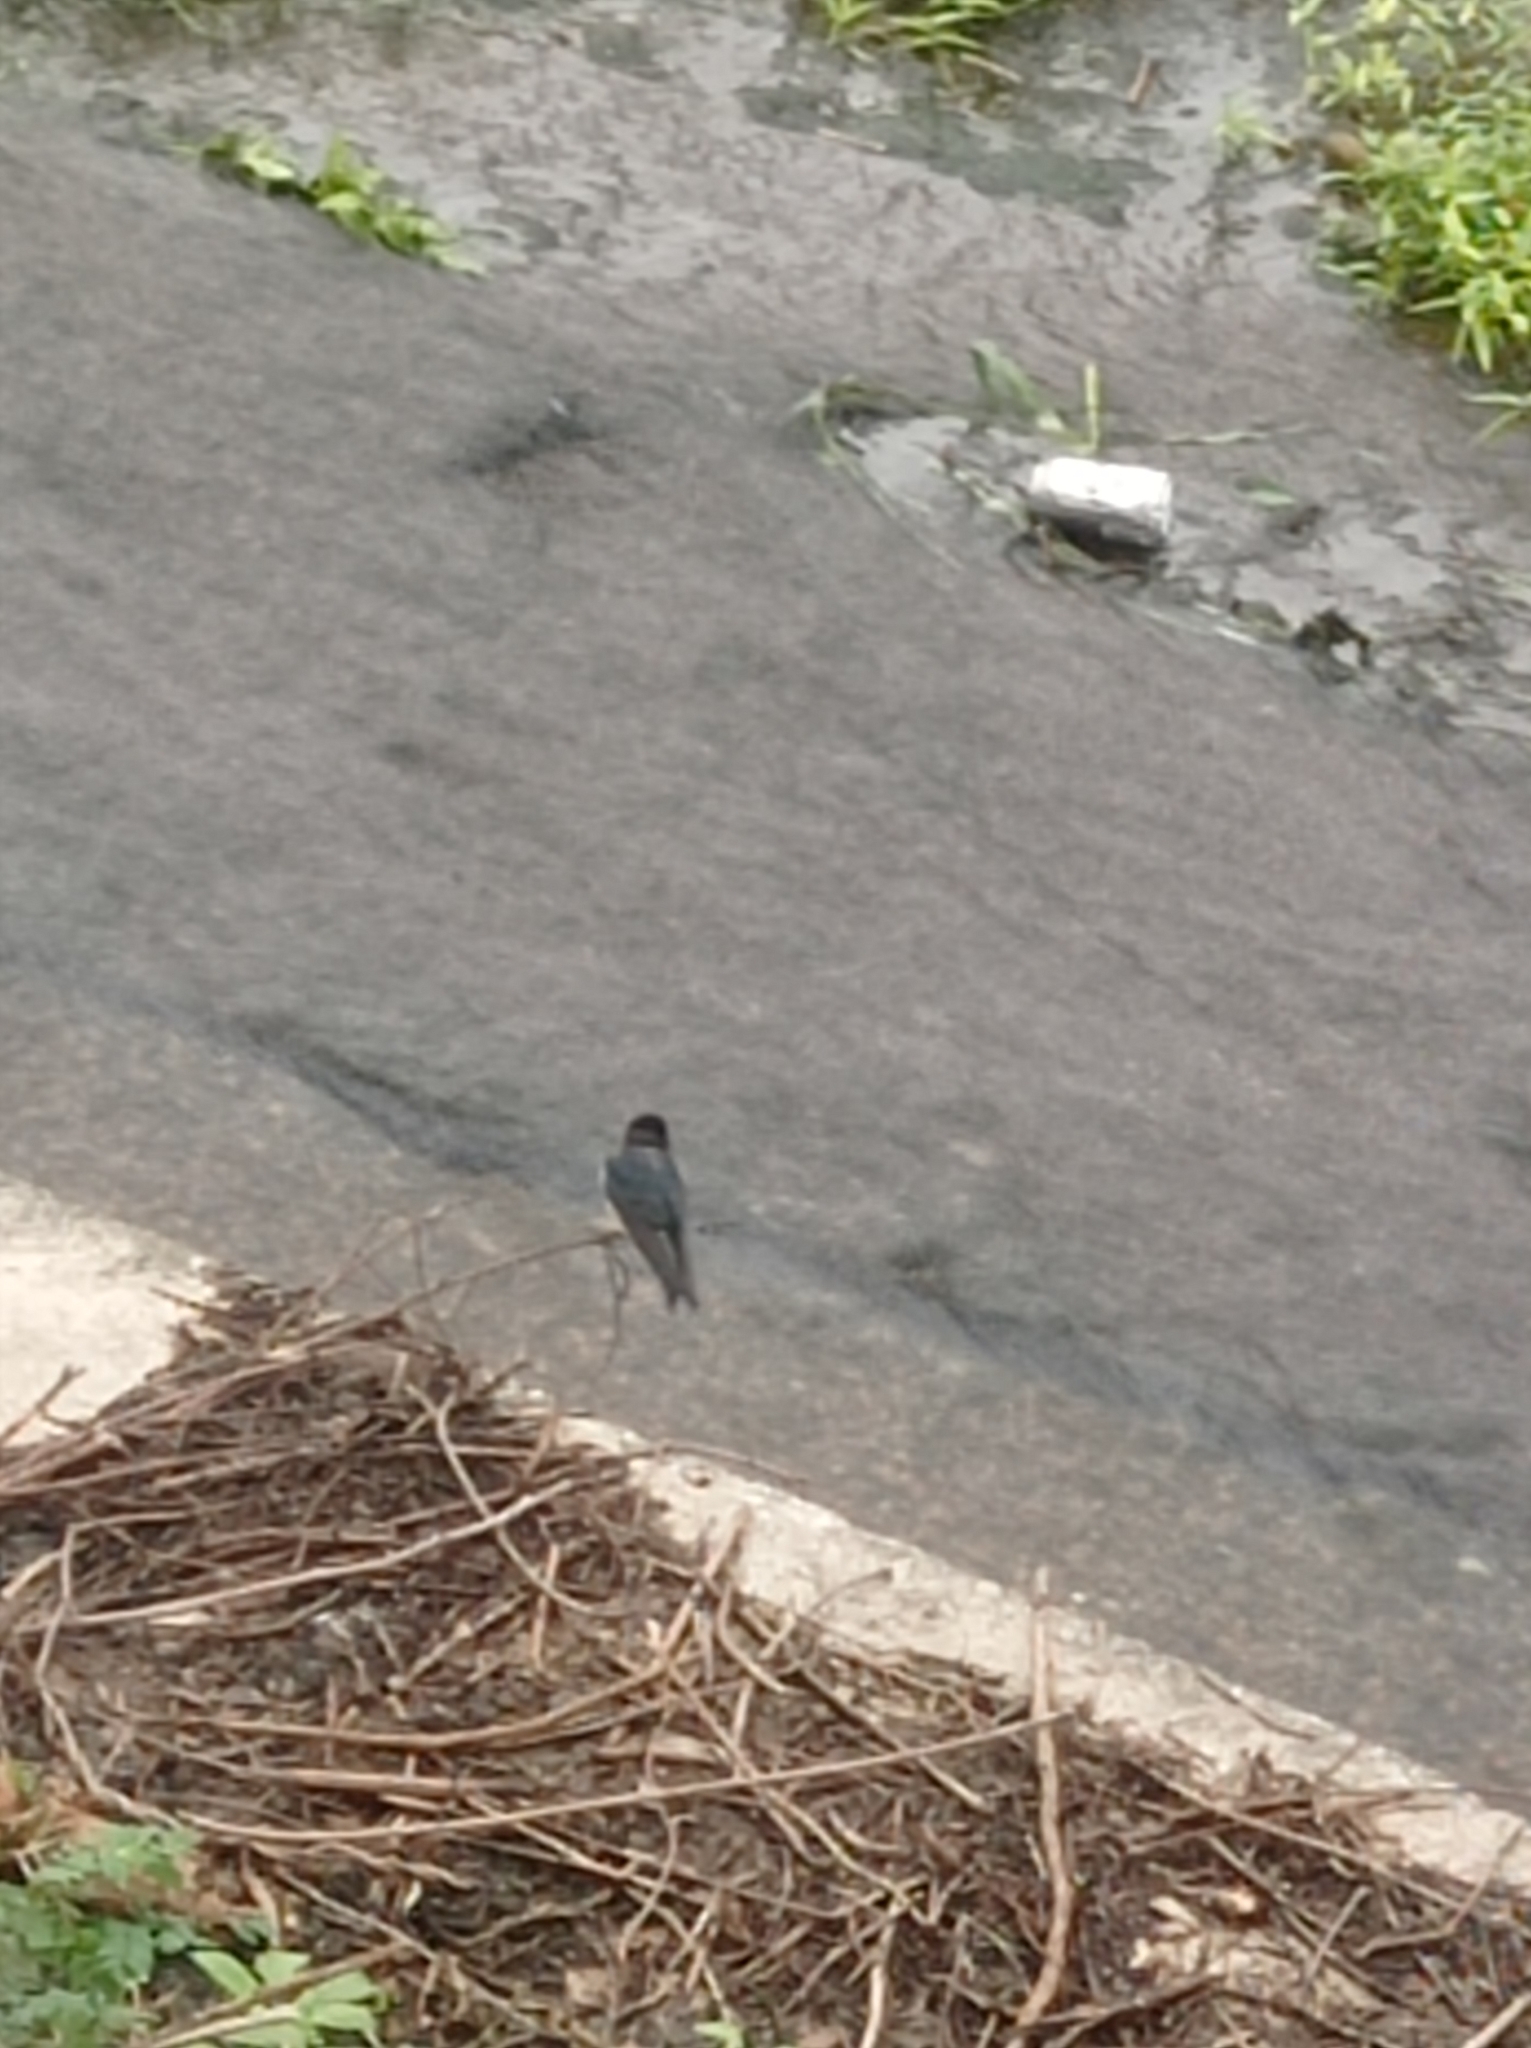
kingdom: Animalia
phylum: Chordata
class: Aves
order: Passeriformes
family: Hirundinidae
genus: Hirundo
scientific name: Hirundo rustica
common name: Barn swallow
